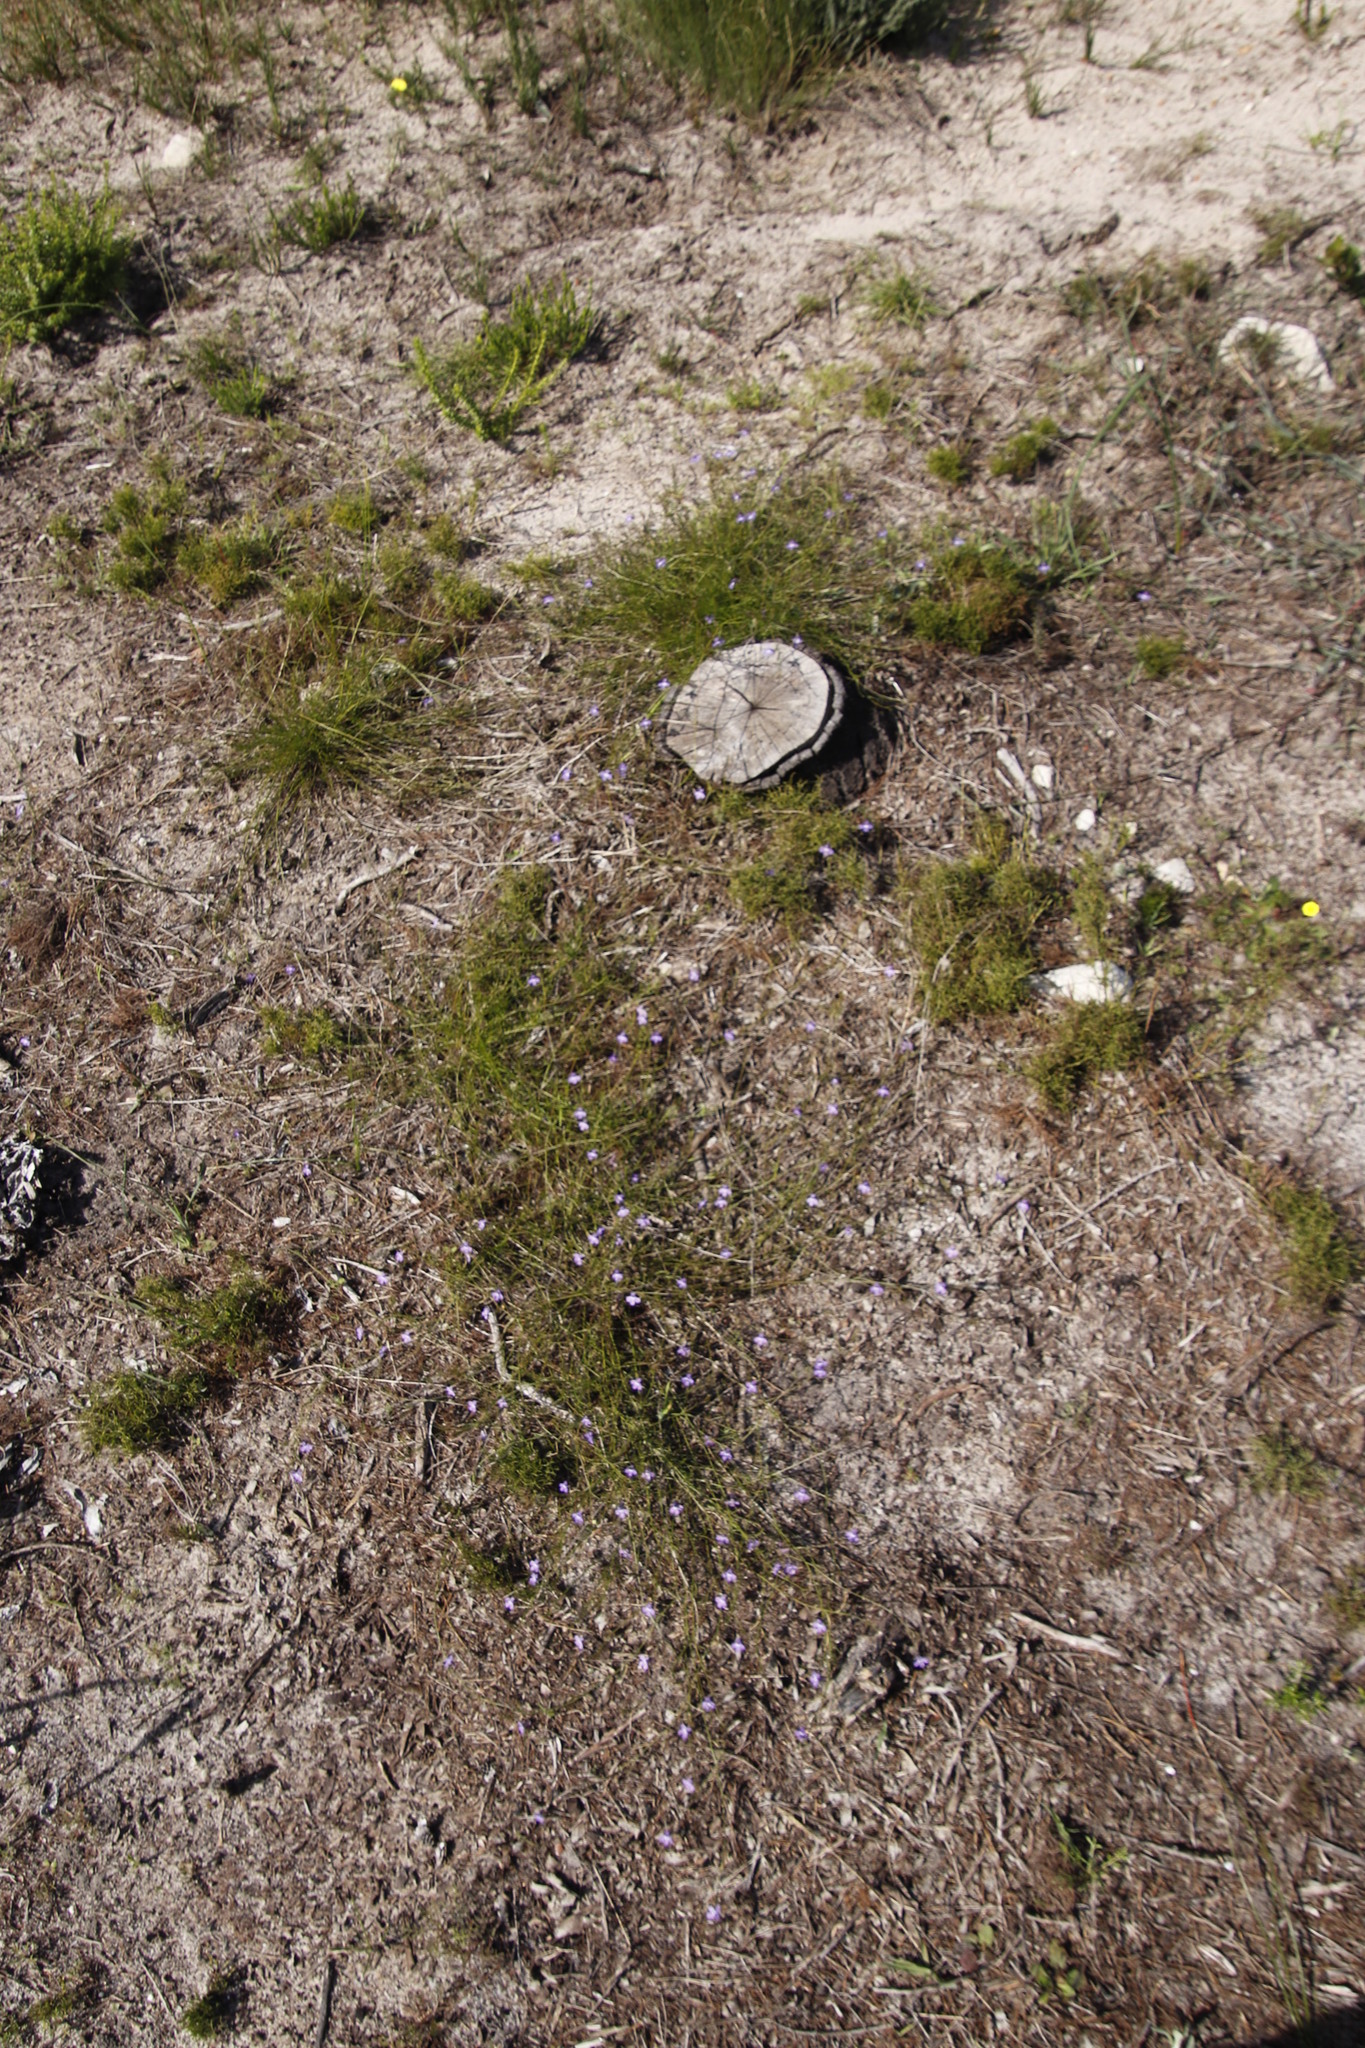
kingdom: Plantae
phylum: Tracheophyta
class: Magnoliopsida
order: Asterales
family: Campanulaceae
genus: Lobelia
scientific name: Lobelia setacea
